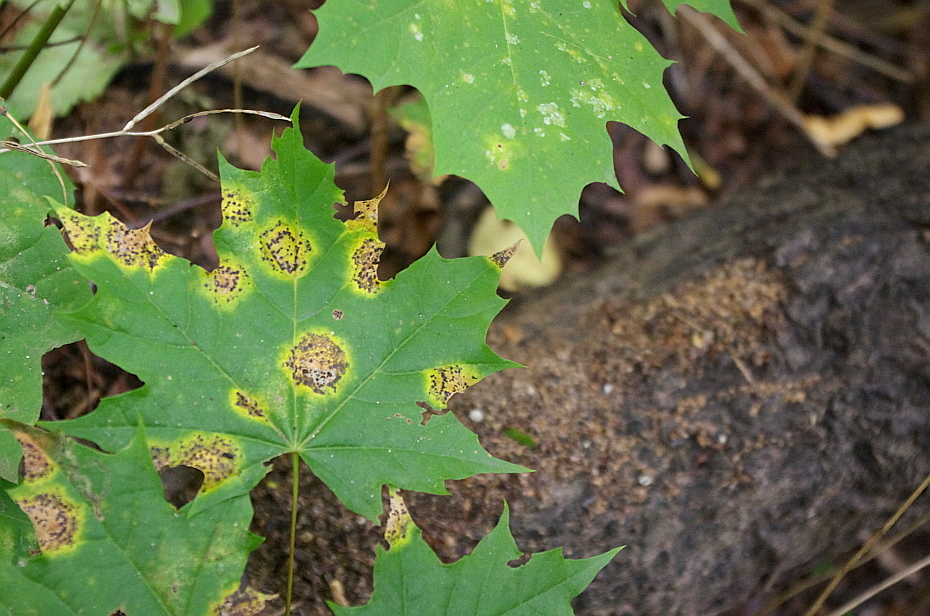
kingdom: Plantae
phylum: Tracheophyta
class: Magnoliopsida
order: Sapindales
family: Sapindaceae
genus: Acer
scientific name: Acer platanoides
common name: Norway maple
